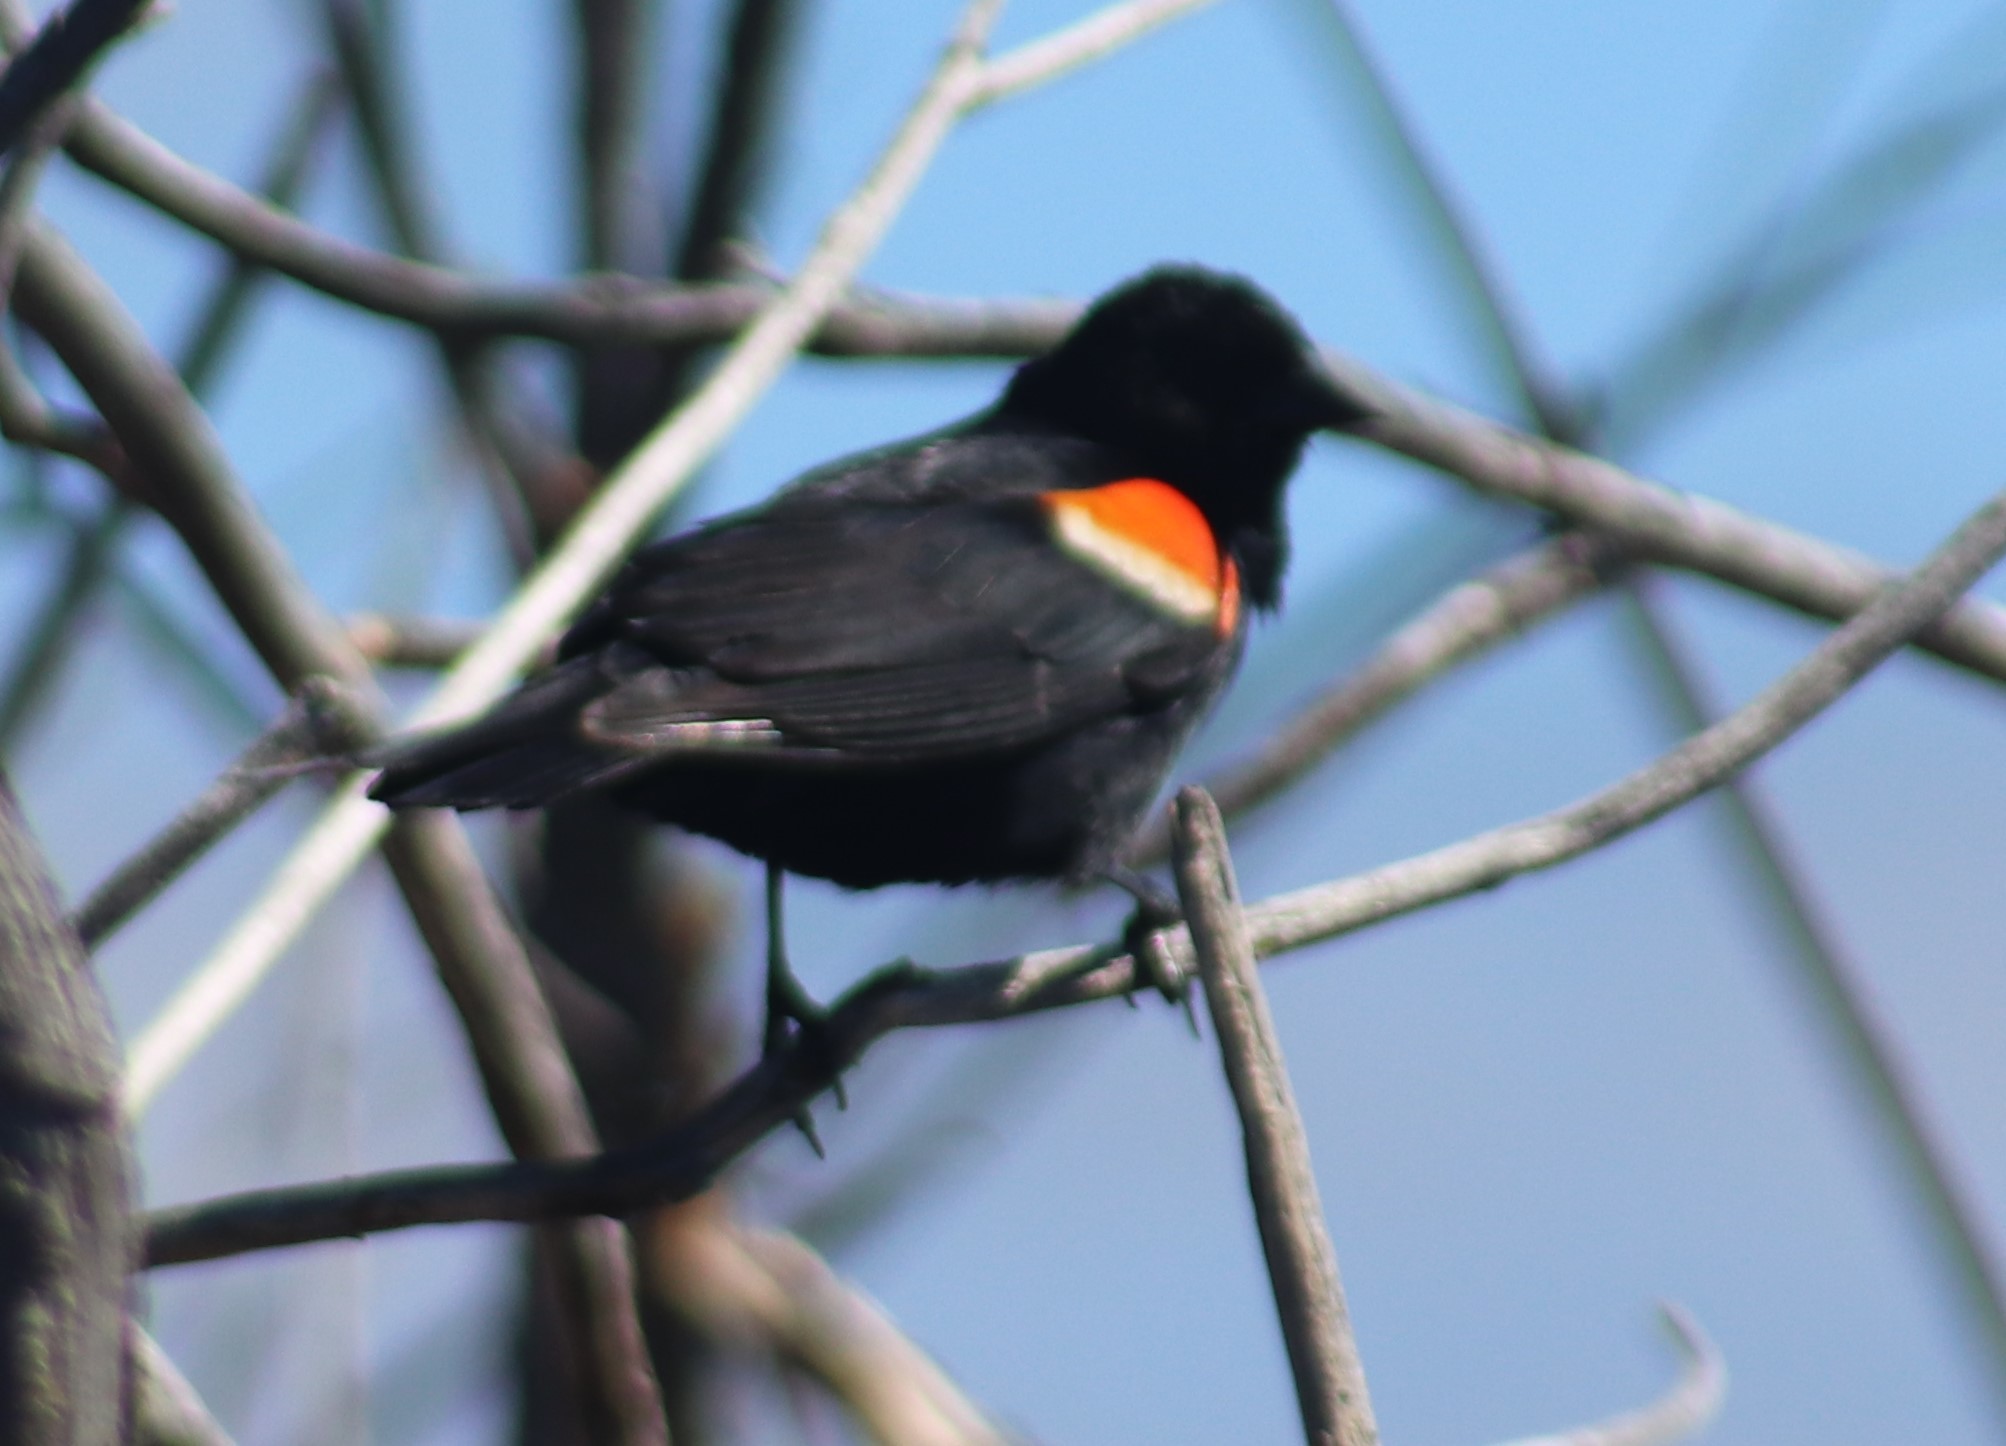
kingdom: Animalia
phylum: Chordata
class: Aves
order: Passeriformes
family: Icteridae
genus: Agelaius
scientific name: Agelaius phoeniceus
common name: Red-winged blackbird
